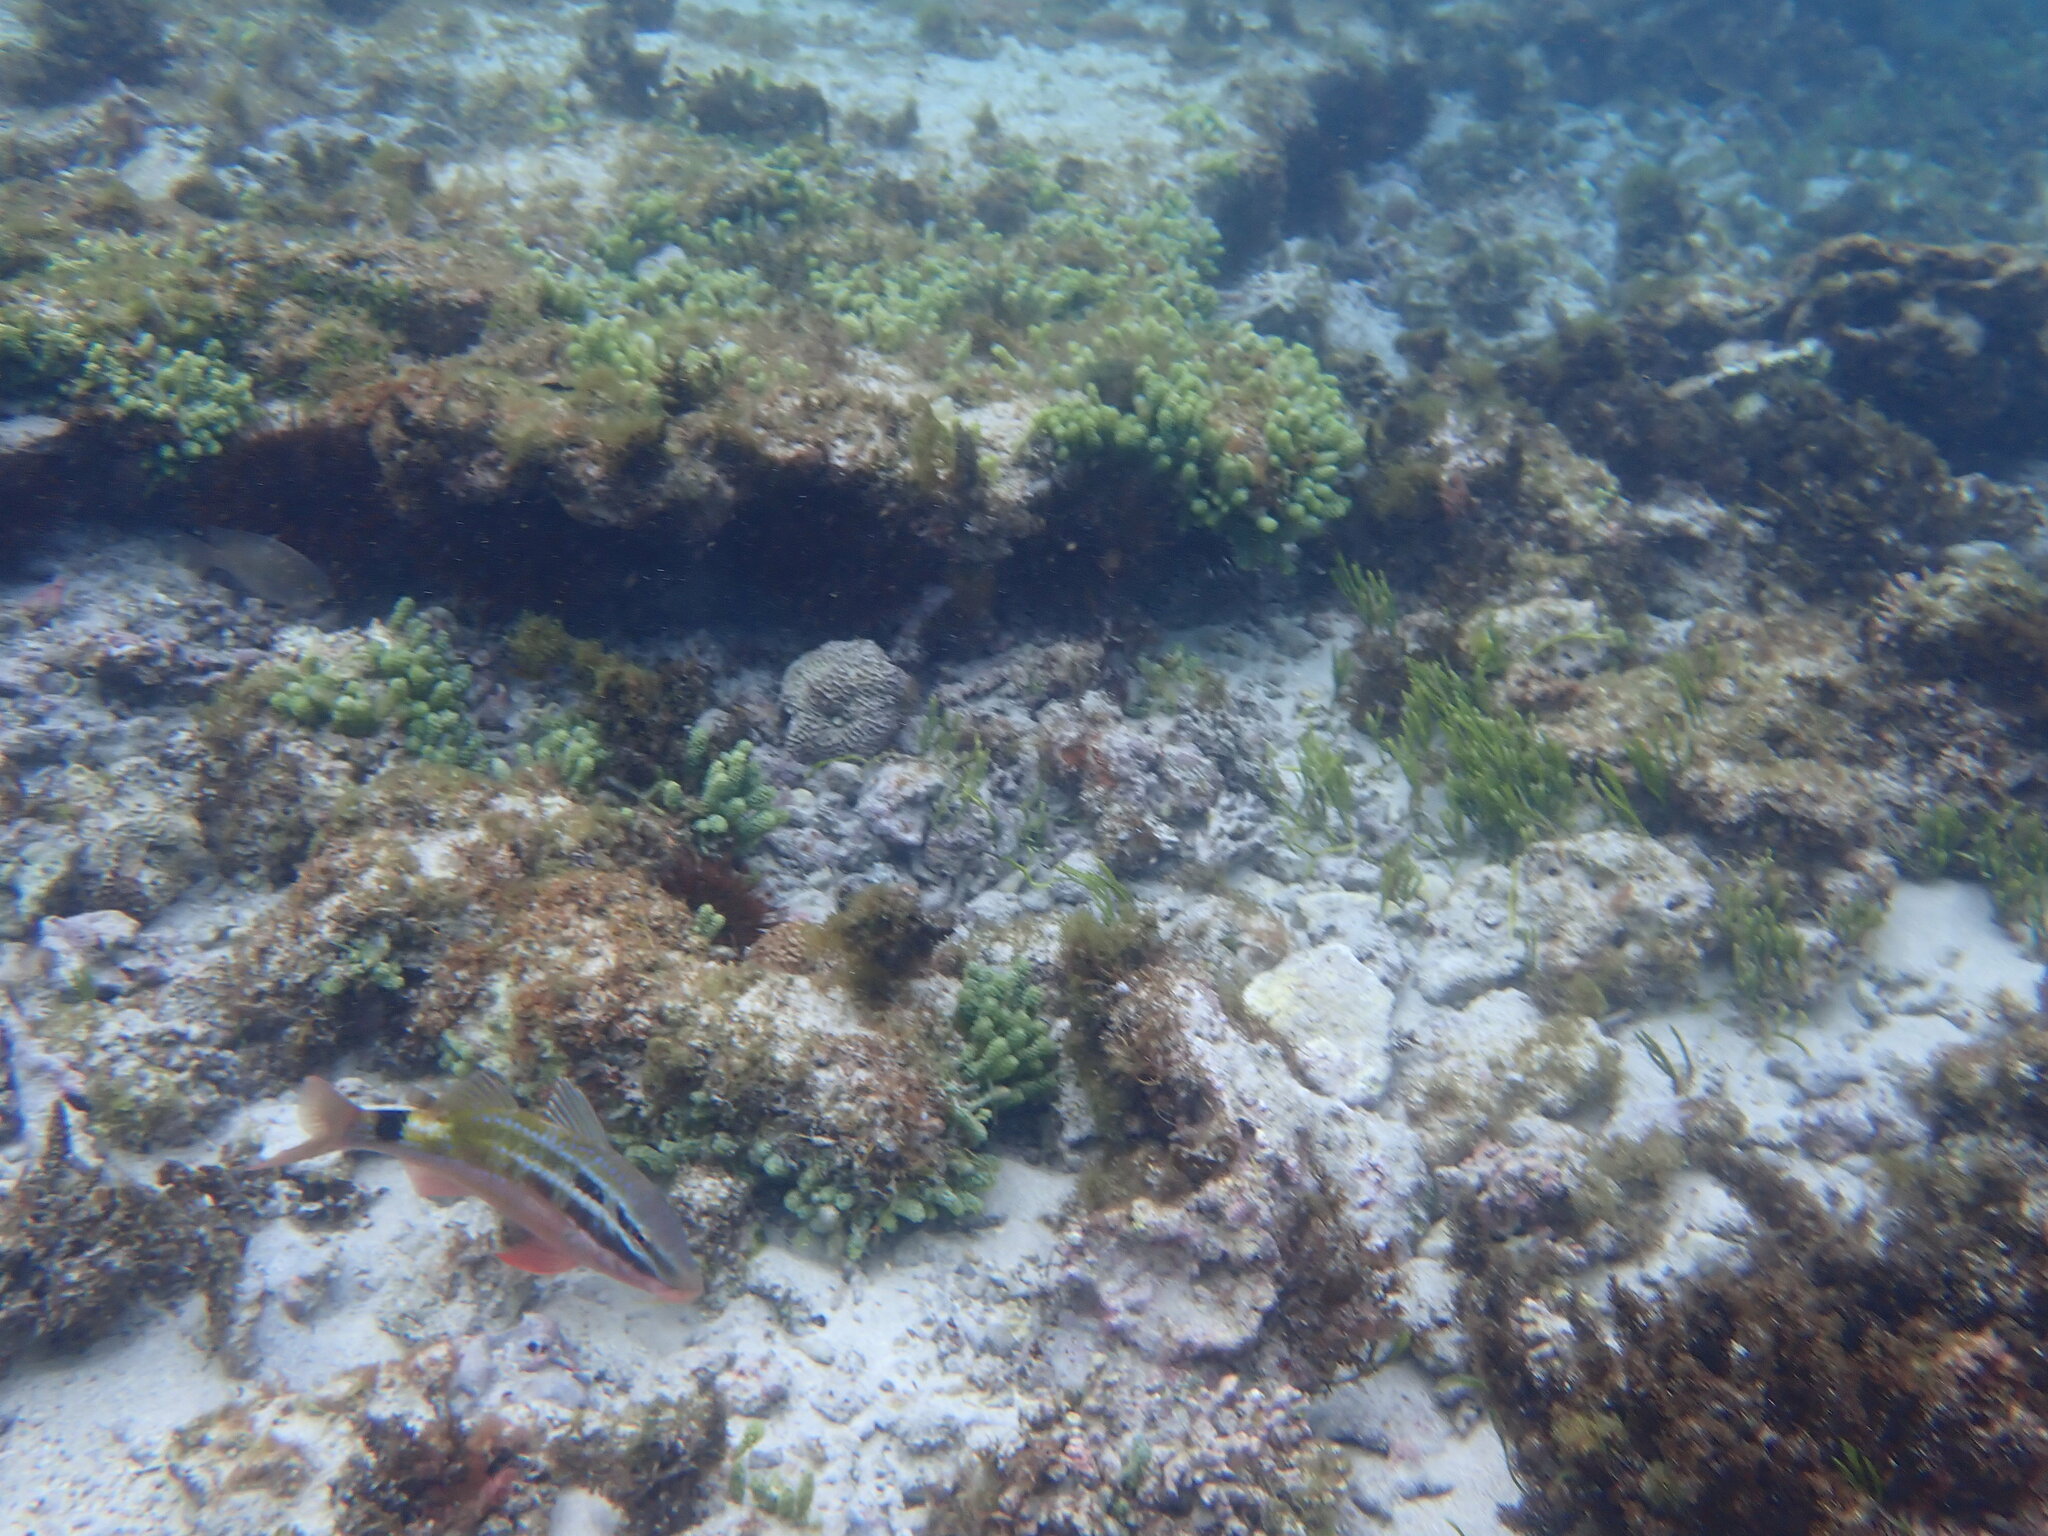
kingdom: Animalia
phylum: Chordata
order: Perciformes
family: Mullidae
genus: Parupeneus
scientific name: Parupeneus spilurus
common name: Blackspot goatfish
